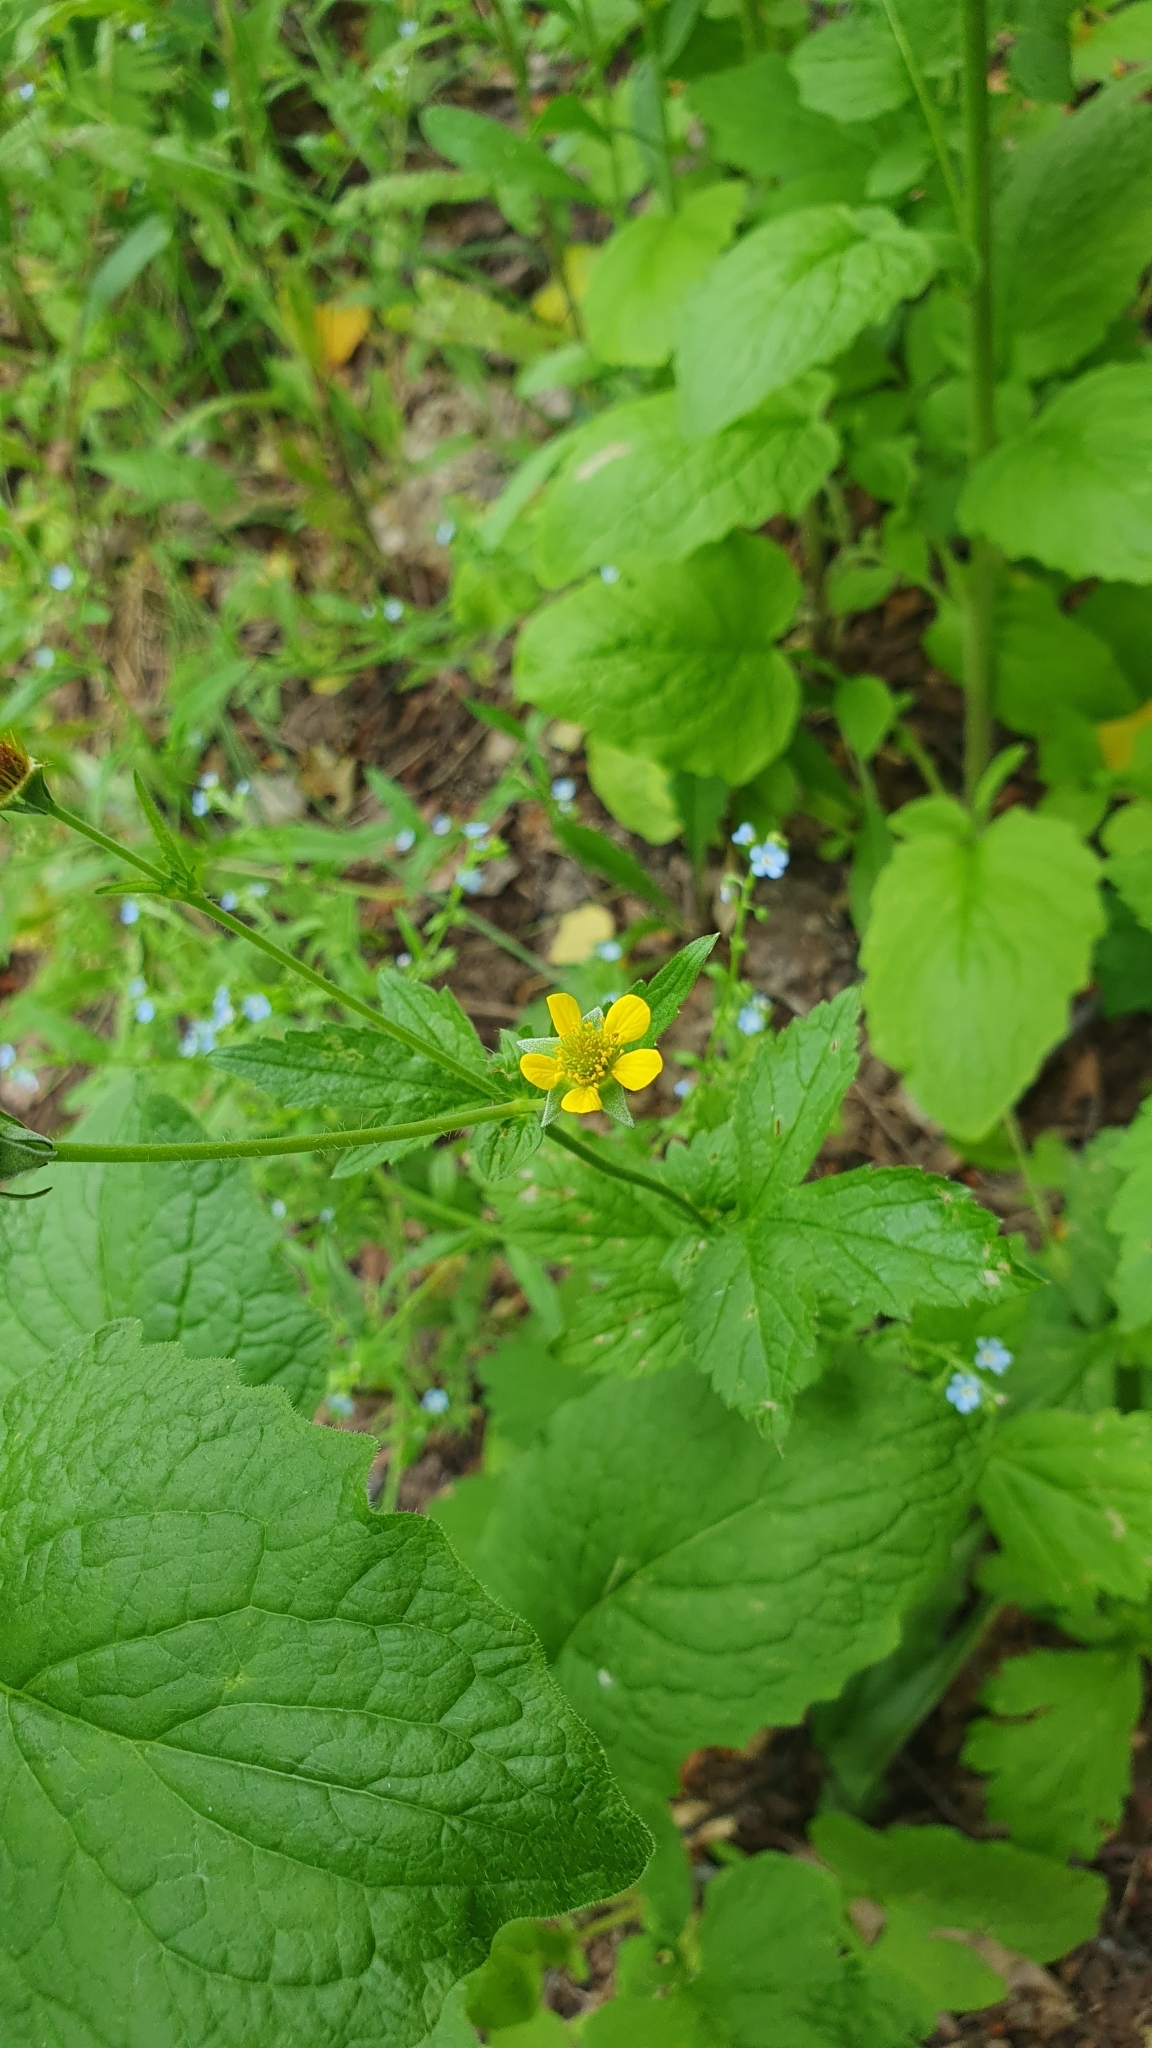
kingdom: Plantae
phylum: Tracheophyta
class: Magnoliopsida
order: Rosales
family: Rosaceae
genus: Geum
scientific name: Geum urbanum
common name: Wood avens
